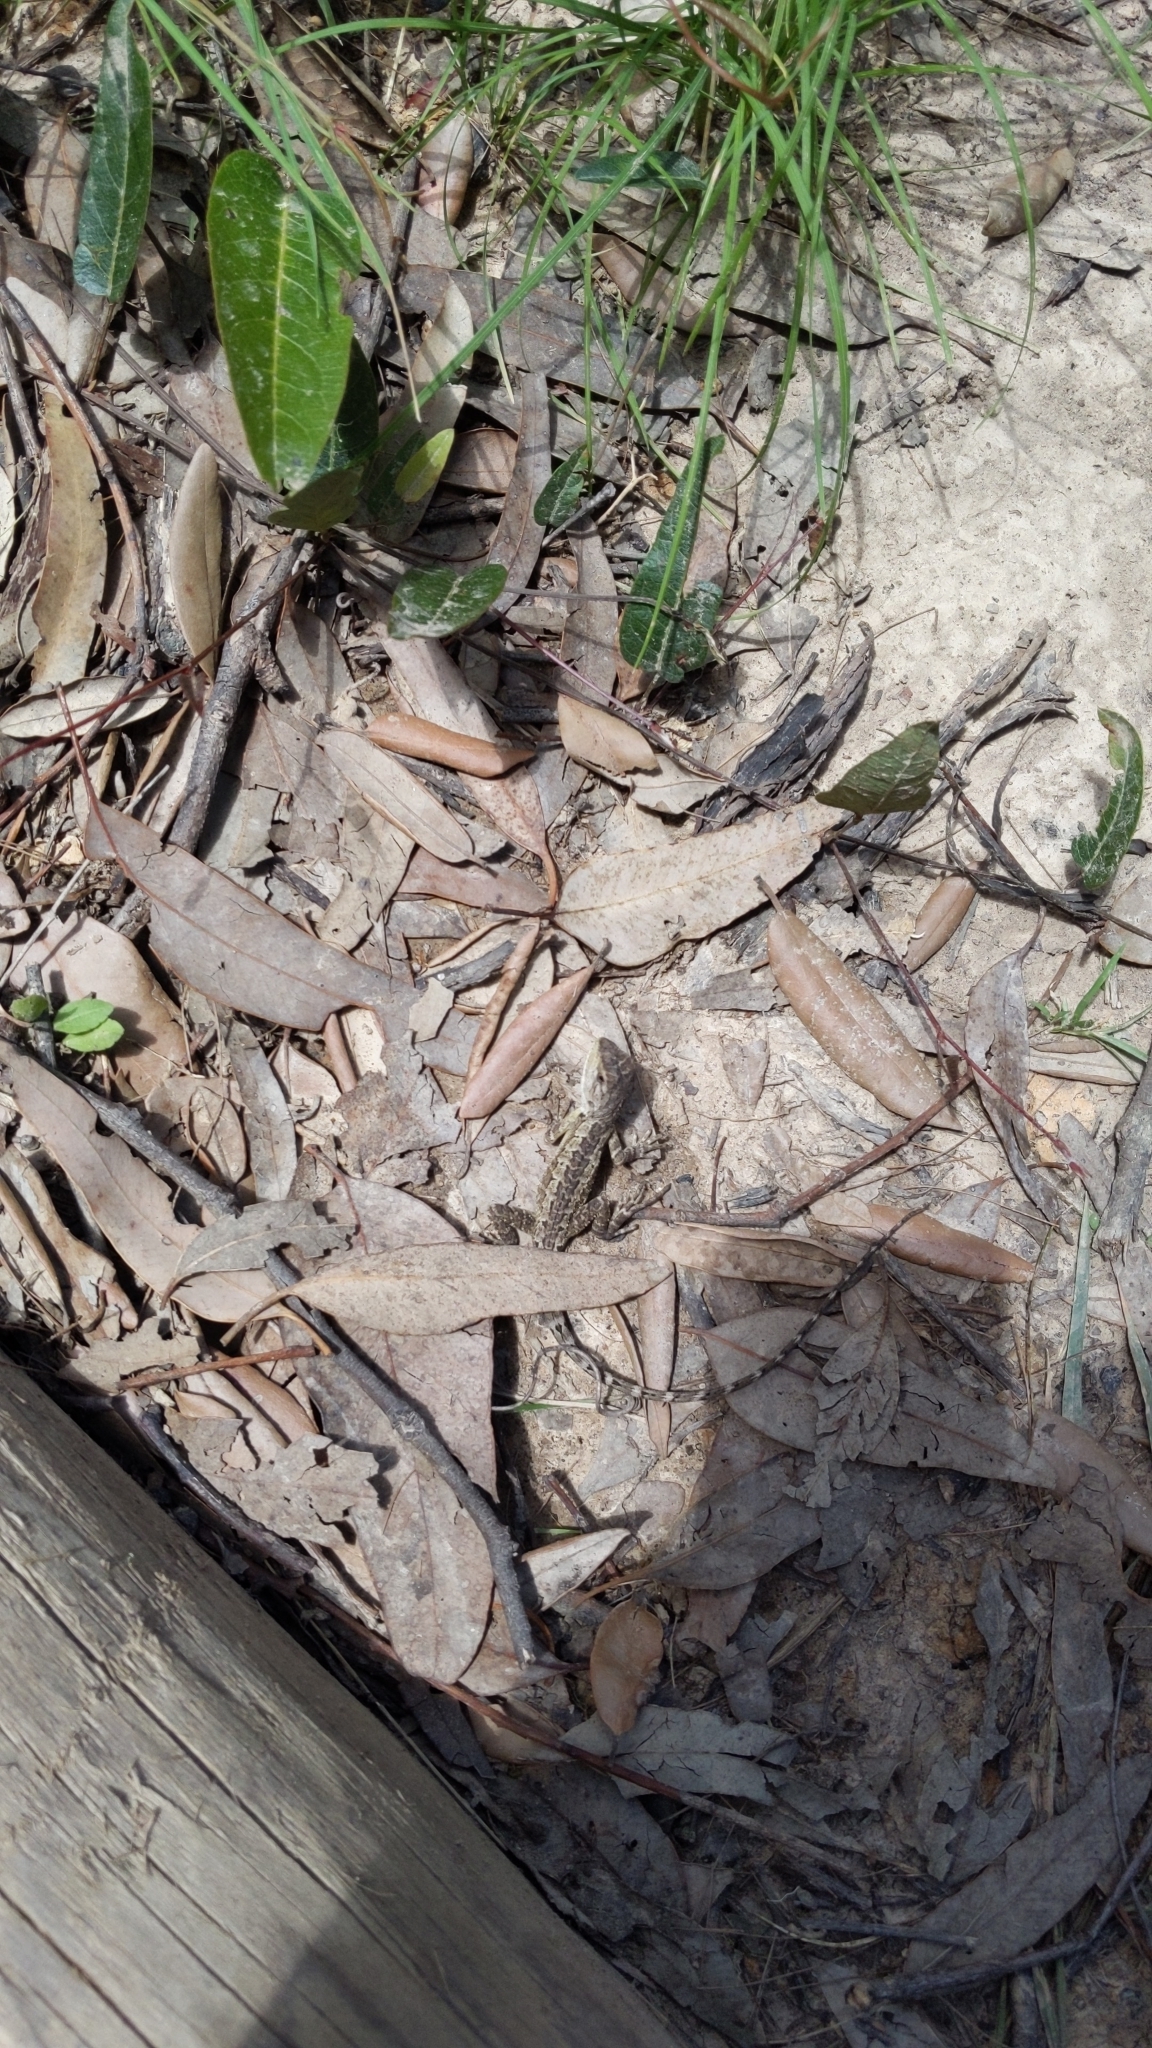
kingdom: Animalia
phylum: Chordata
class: Squamata
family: Agamidae
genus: Amphibolurus
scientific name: Amphibolurus muricatus
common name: Jacky lizard
